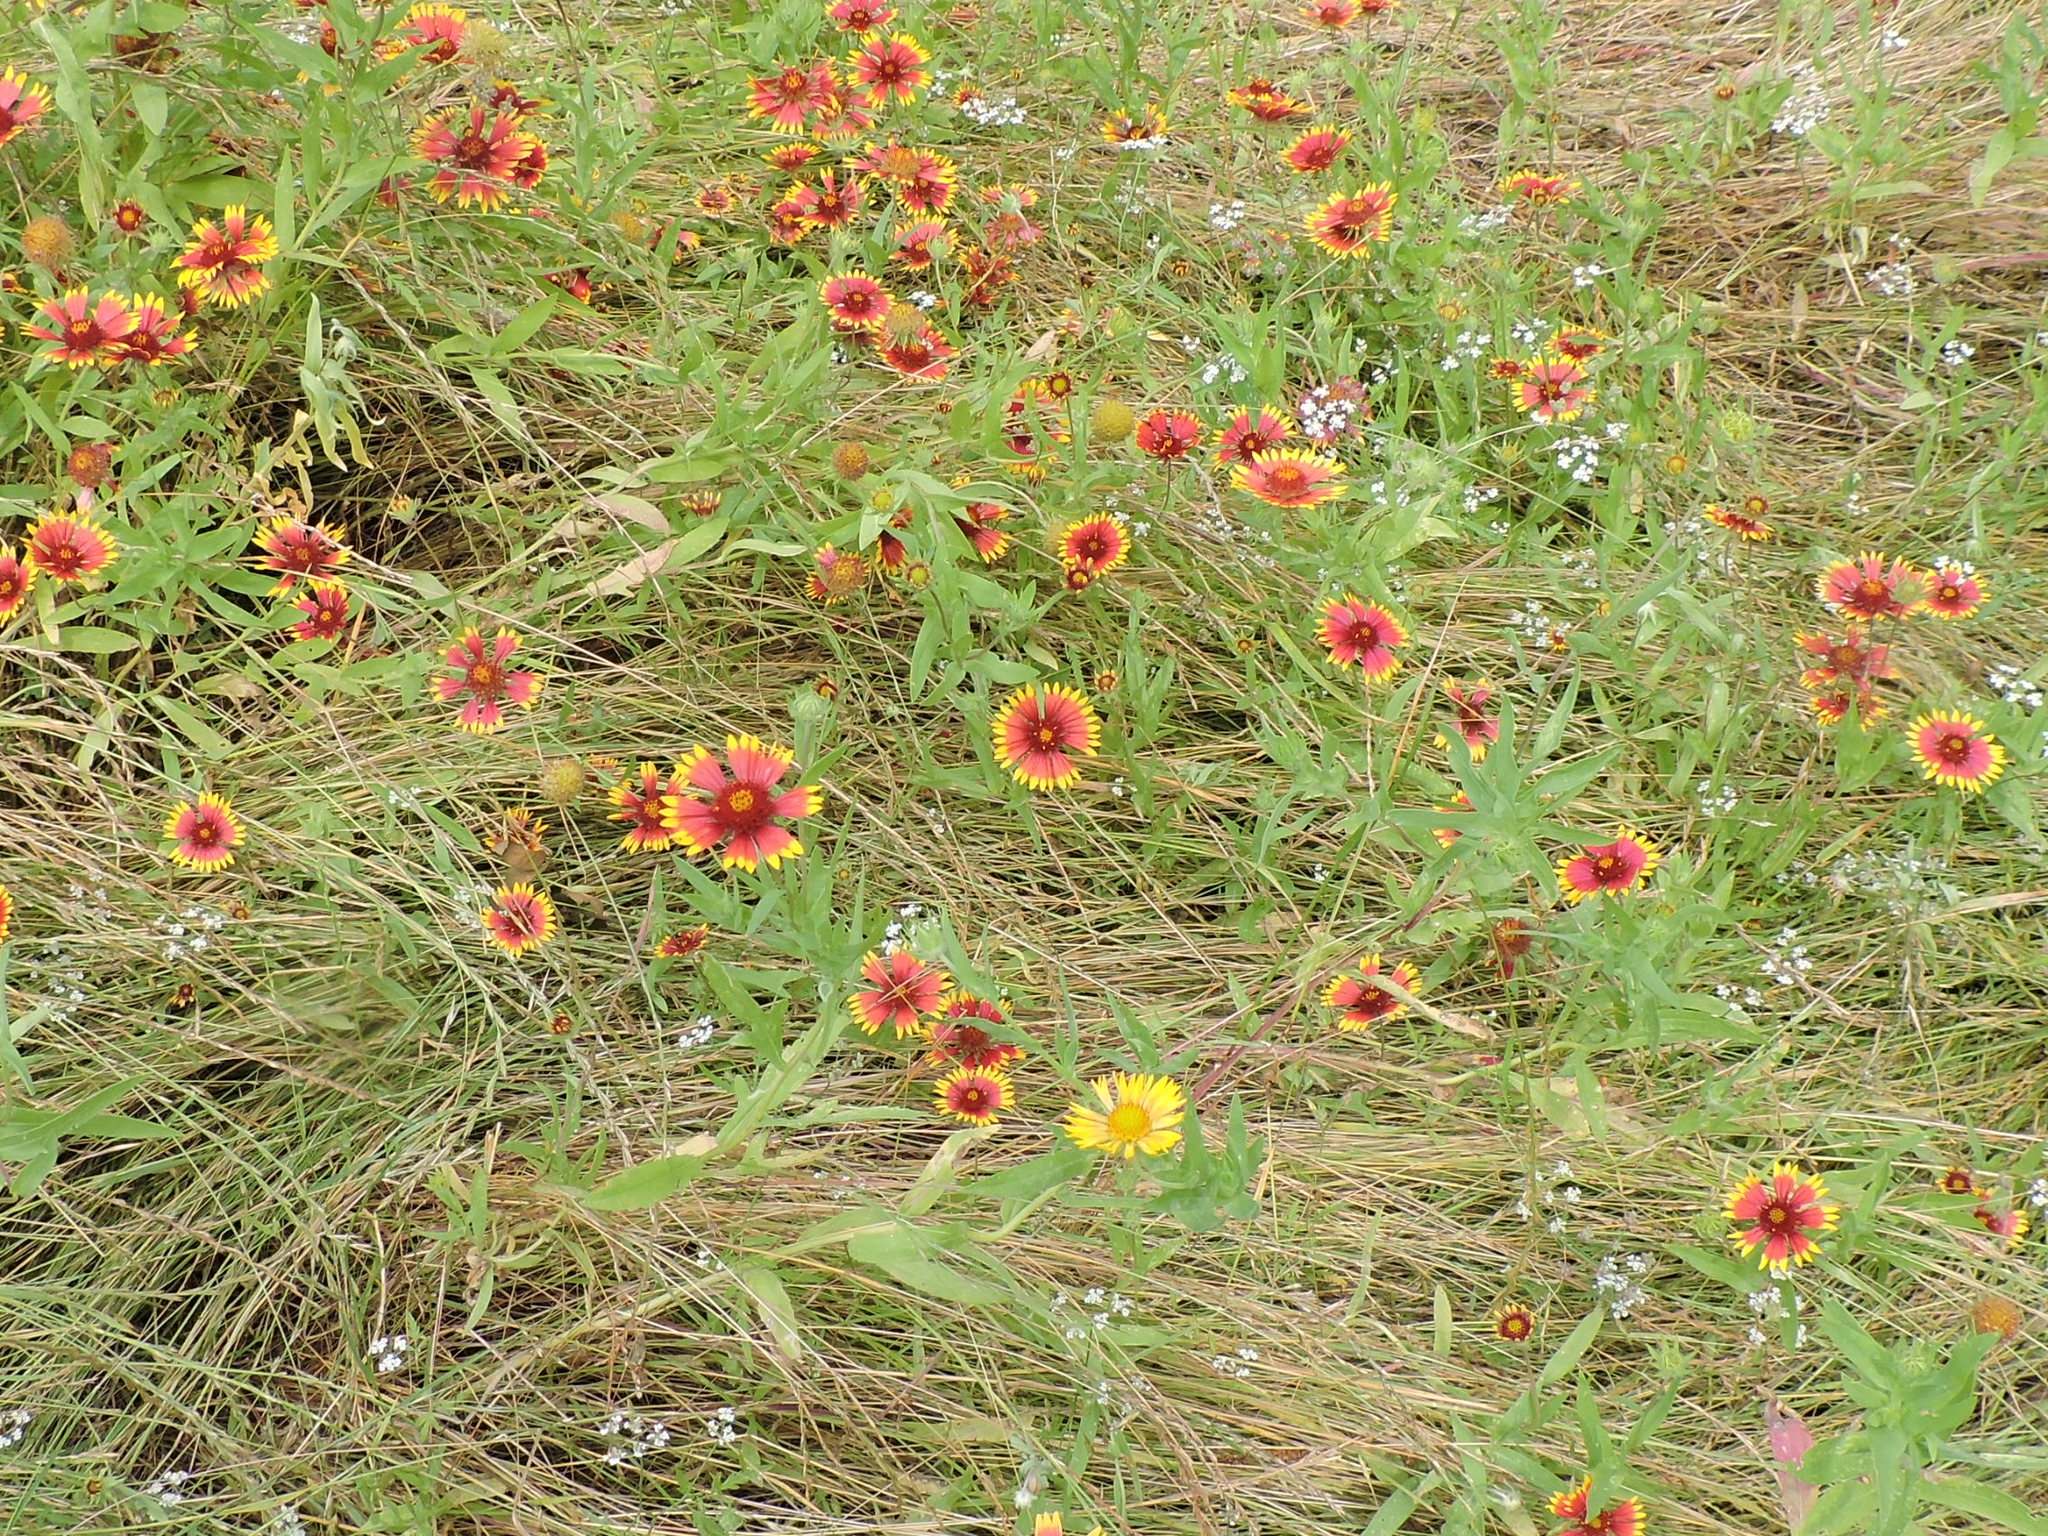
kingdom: Plantae
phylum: Tracheophyta
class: Magnoliopsida
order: Asterales
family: Asteraceae
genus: Gaillardia
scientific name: Gaillardia pulchella
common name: Firewheel
